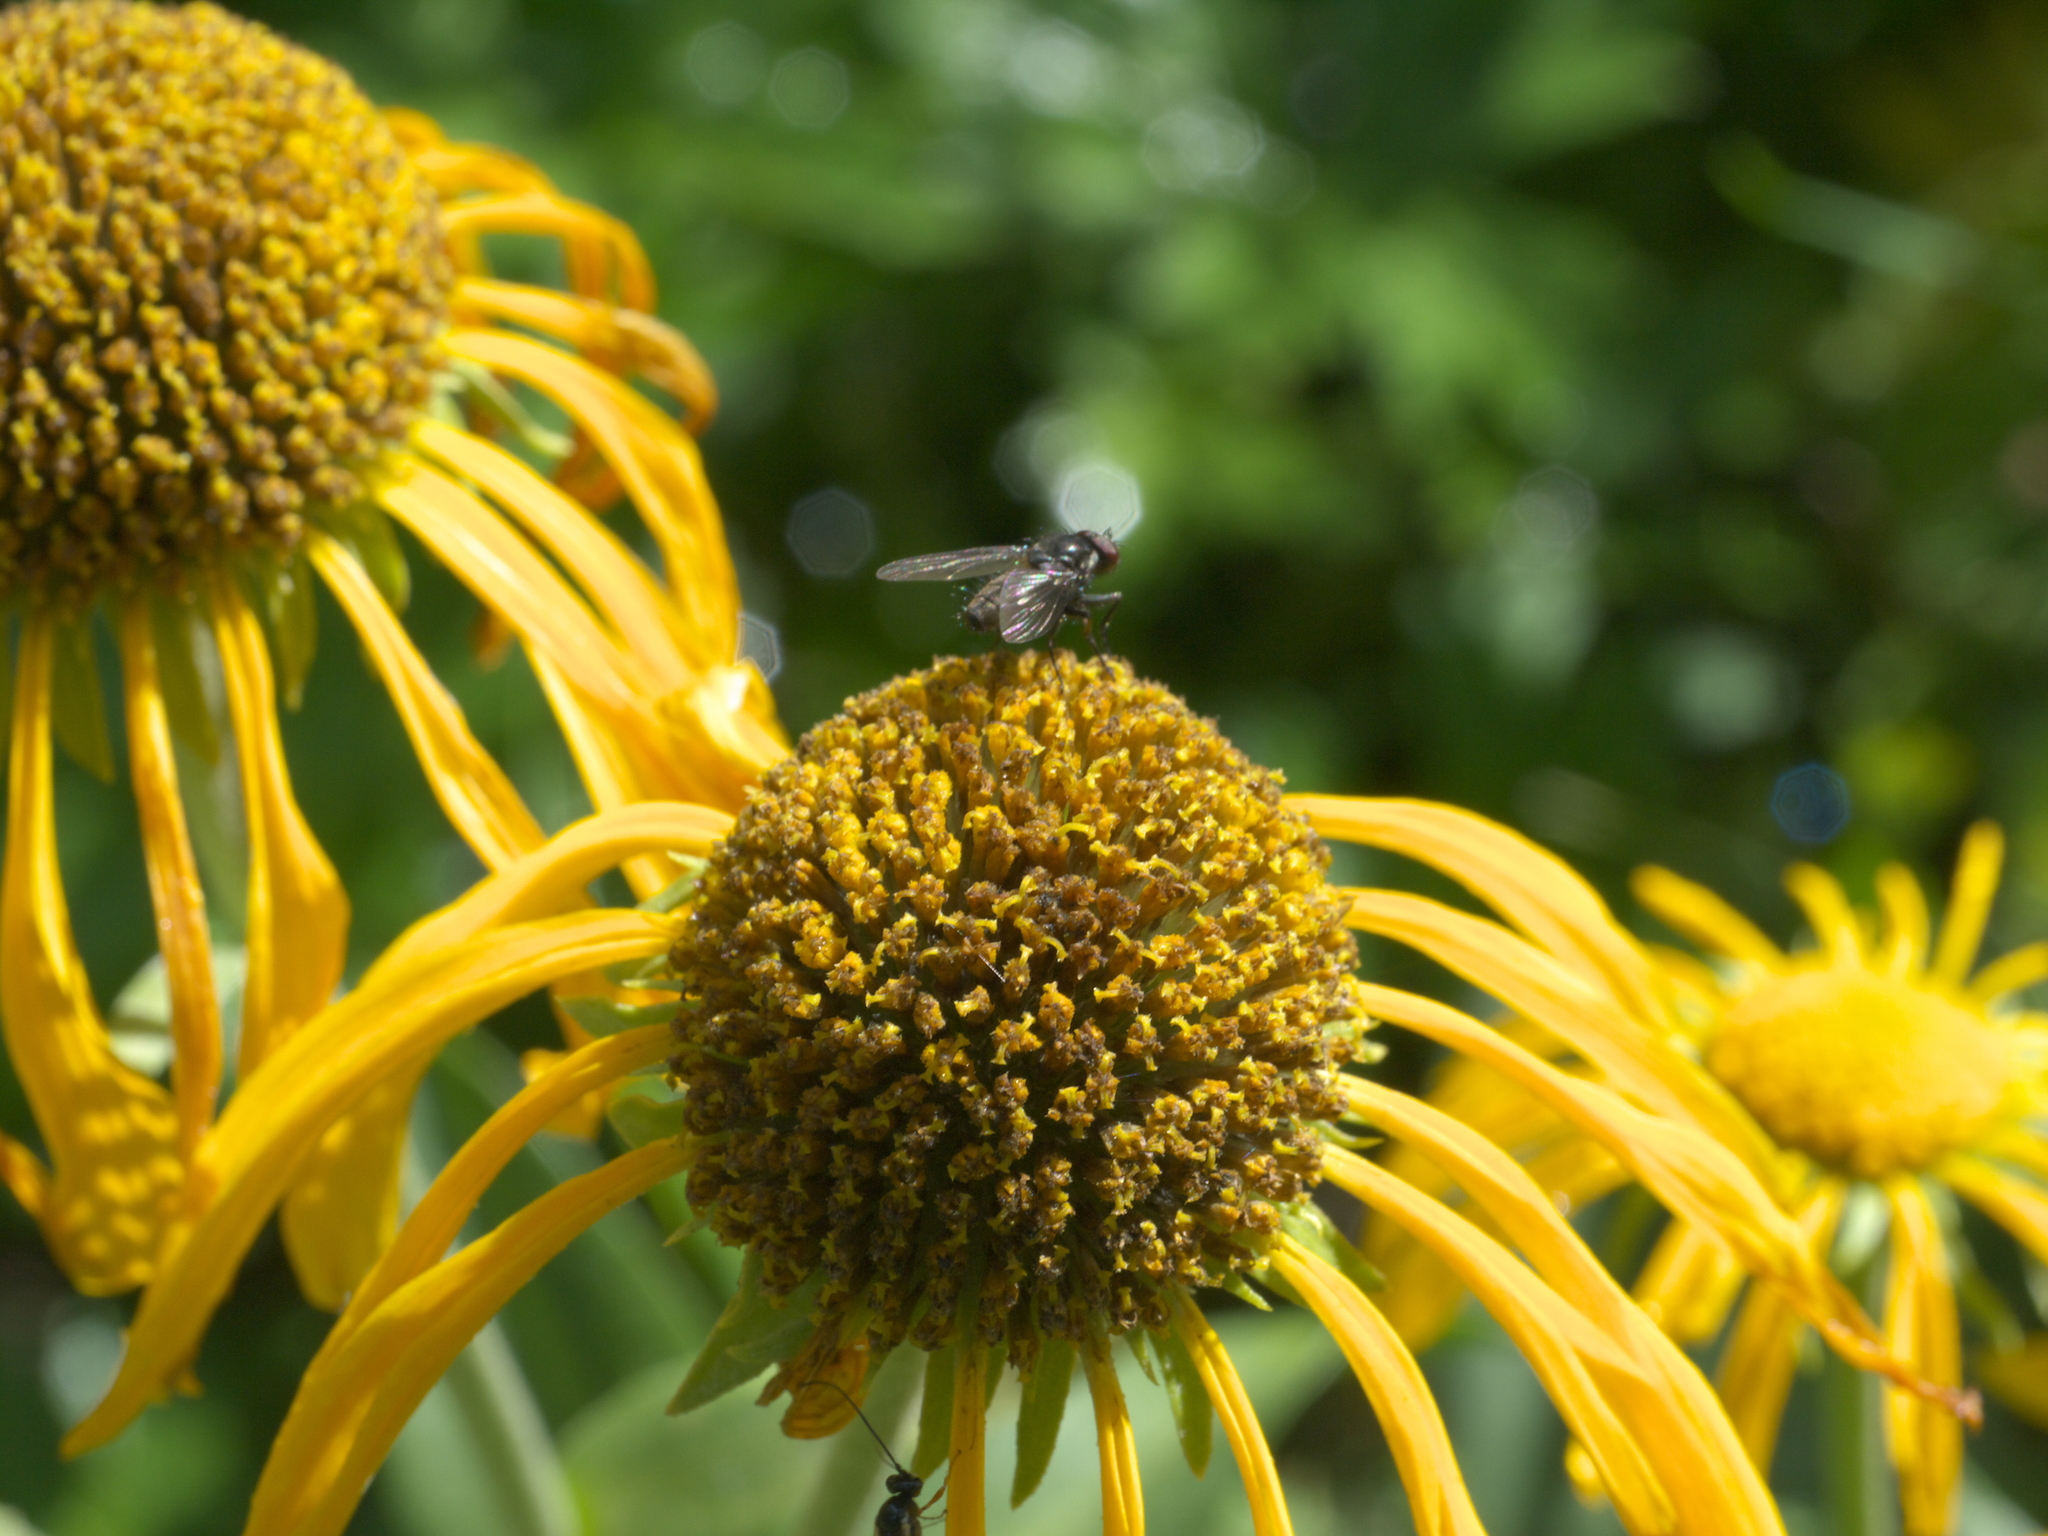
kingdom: Plantae
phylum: Tracheophyta
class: Magnoliopsida
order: Asterales
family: Asteraceae
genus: Rudbeckia
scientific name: Rudbeckia laciniata
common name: Coneflower
